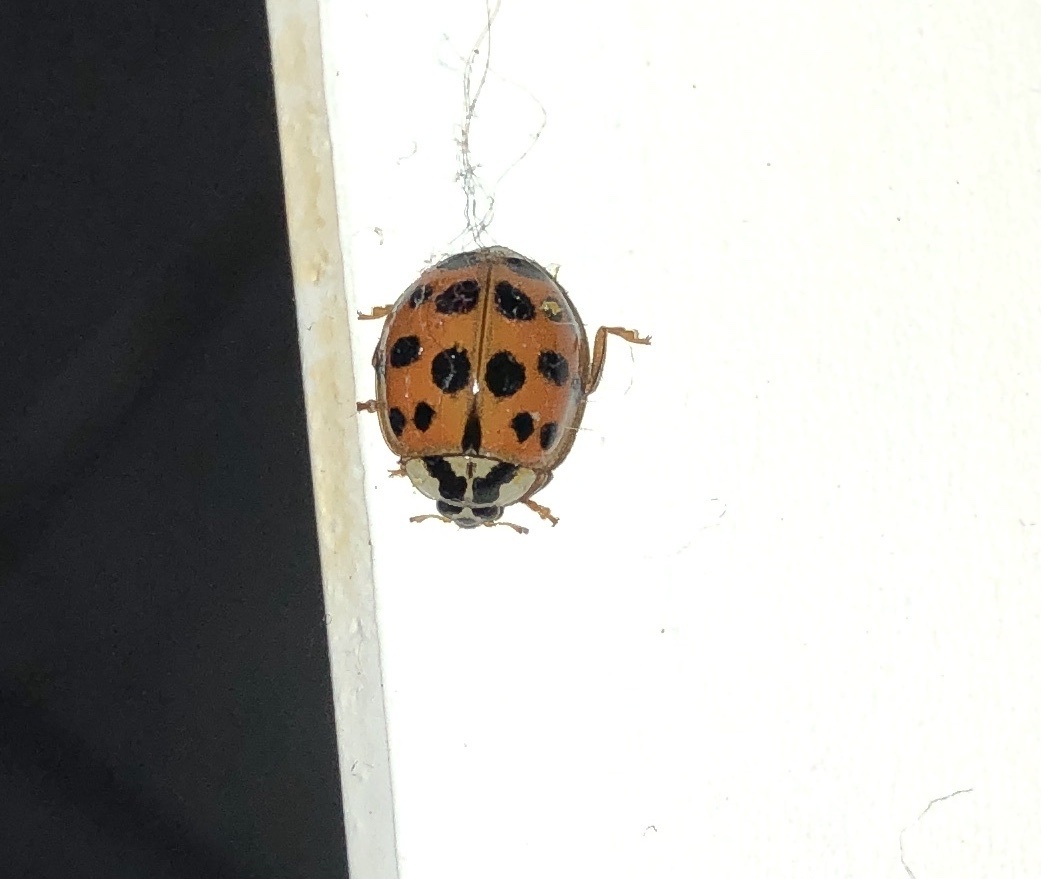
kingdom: Animalia
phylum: Arthropoda
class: Insecta
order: Coleoptera
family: Coccinellidae
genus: Harmonia
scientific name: Harmonia axyridis
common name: Harlequin ladybird
